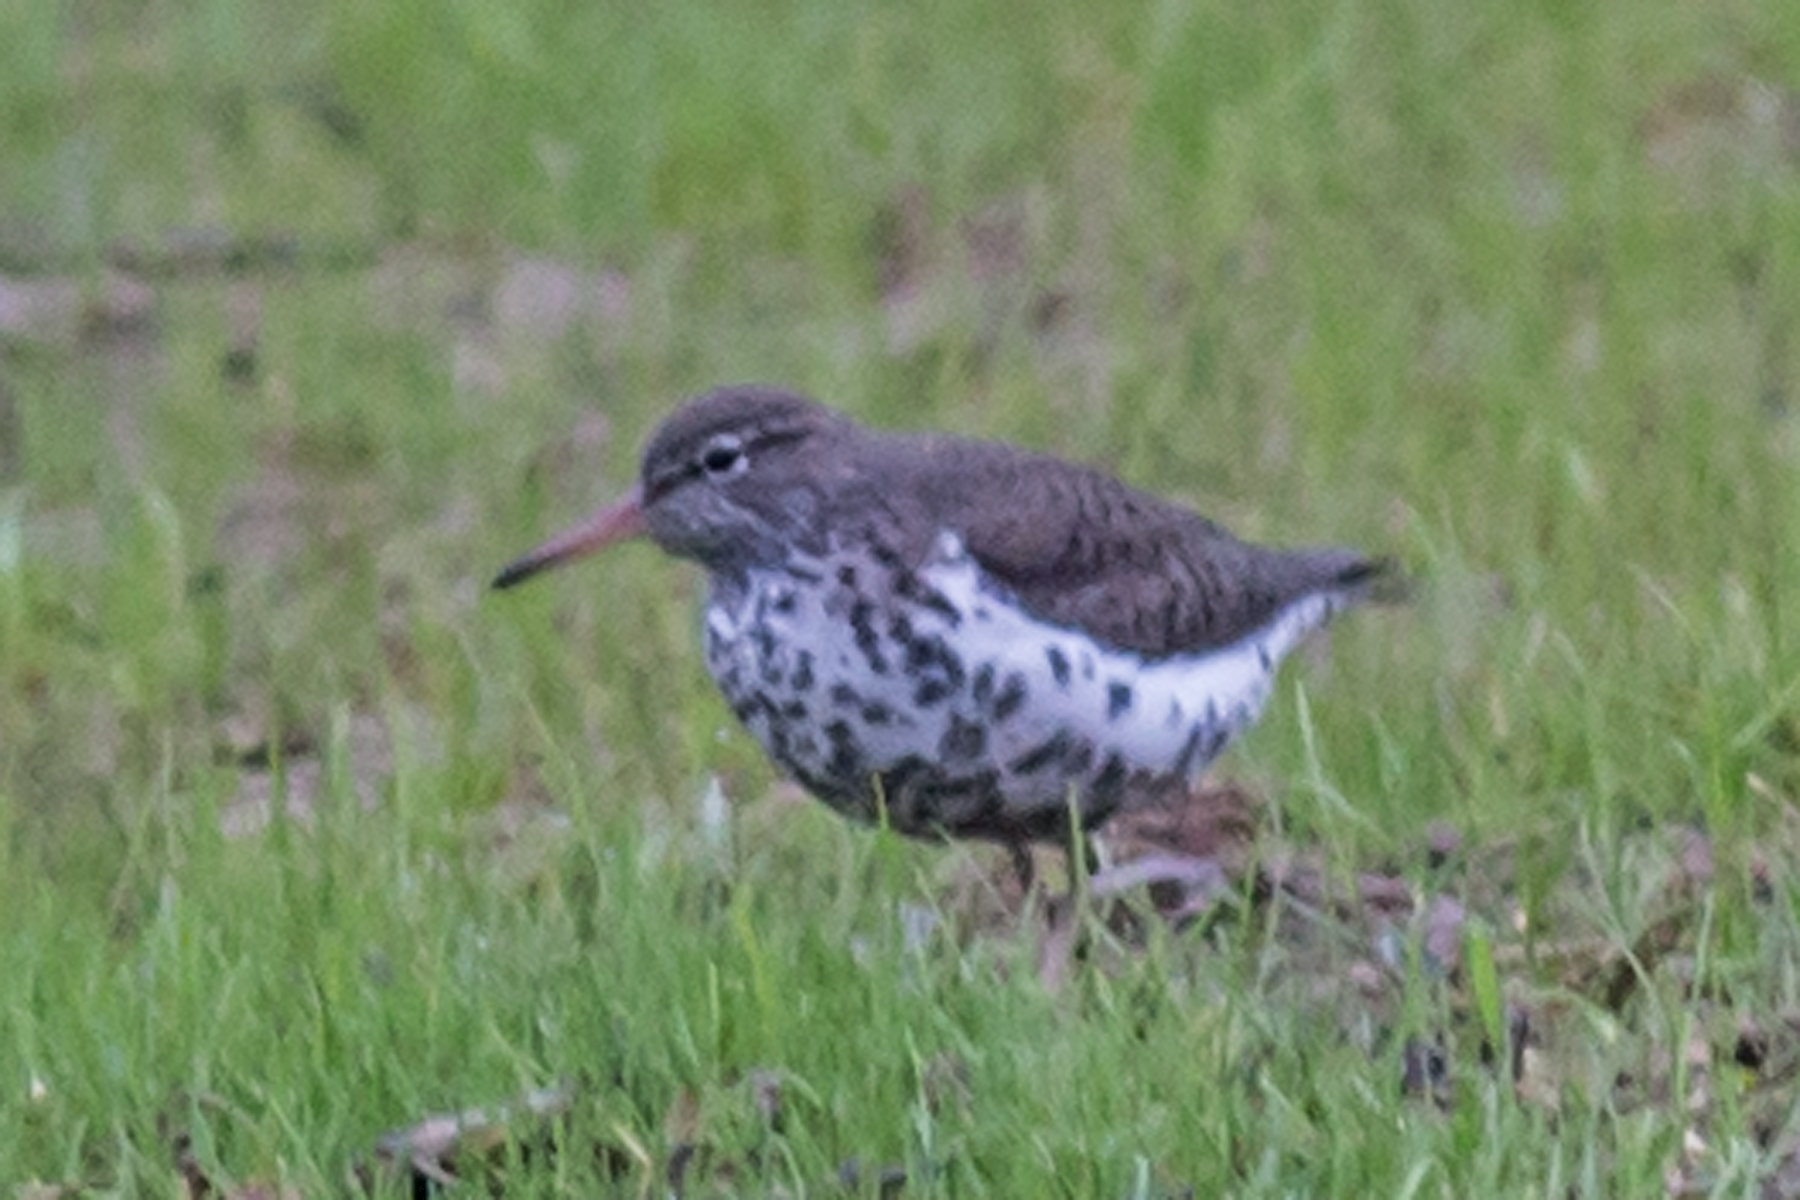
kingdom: Animalia
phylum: Chordata
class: Aves
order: Charadriiformes
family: Scolopacidae
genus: Actitis
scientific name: Actitis macularius
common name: Spotted sandpiper
